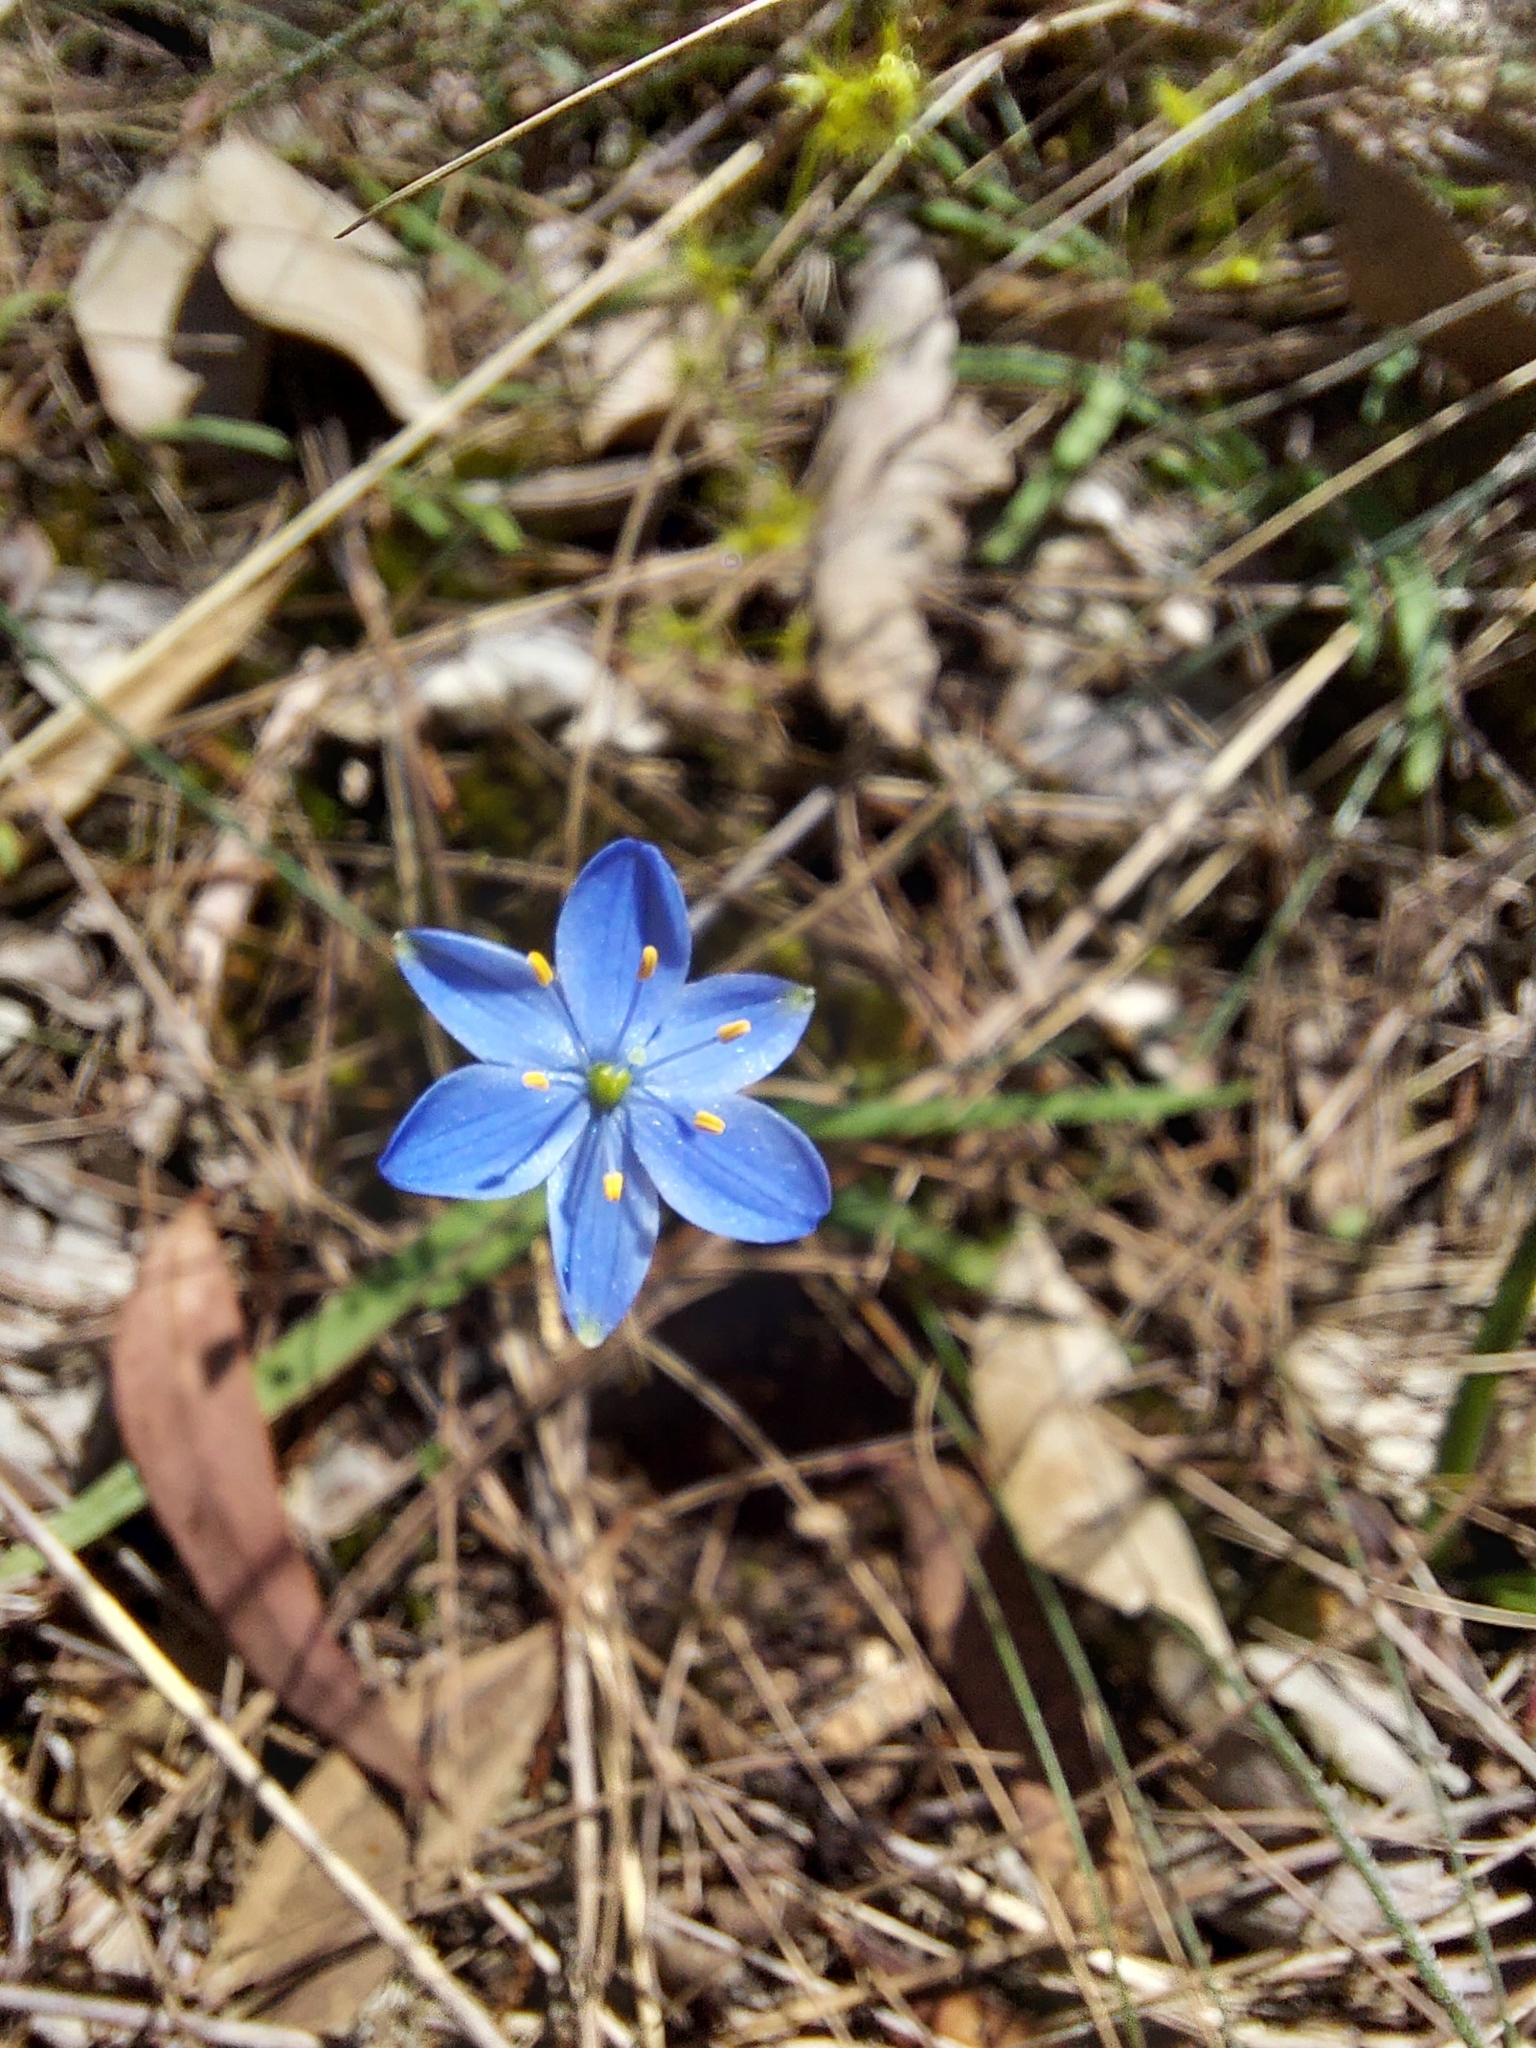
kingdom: Plantae
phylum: Tracheophyta
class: Liliopsida
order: Asparagales
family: Asphodelaceae
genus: Chamaescilla
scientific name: Chamaescilla corymbosa
